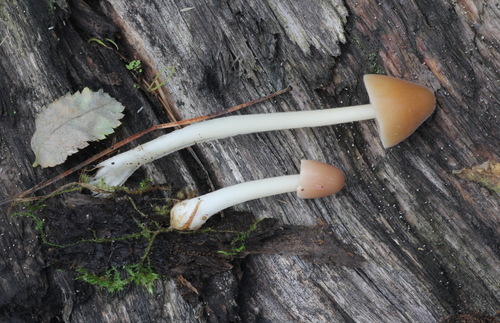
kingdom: Fungi
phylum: Basidiomycota
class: Agaricomycetes
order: Agaricales
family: Bolbitiaceae
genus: Conocybe
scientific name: Conocybe apala
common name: Milky conecap
